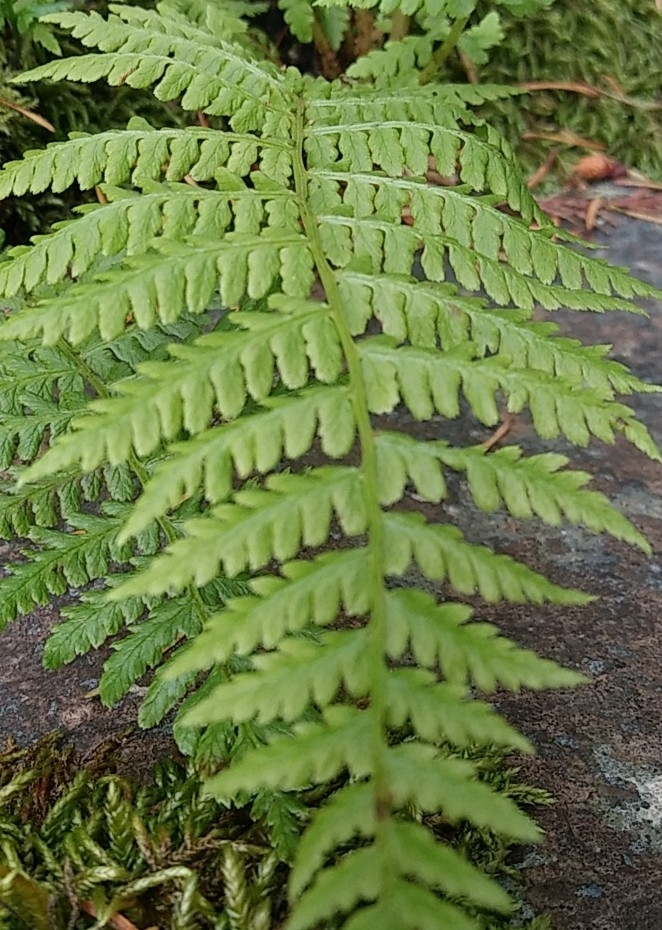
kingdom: Plantae
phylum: Tracheophyta
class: Polypodiopsida
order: Polypodiales
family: Athyriaceae
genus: Athyrium
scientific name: Athyrium cyclosorum
